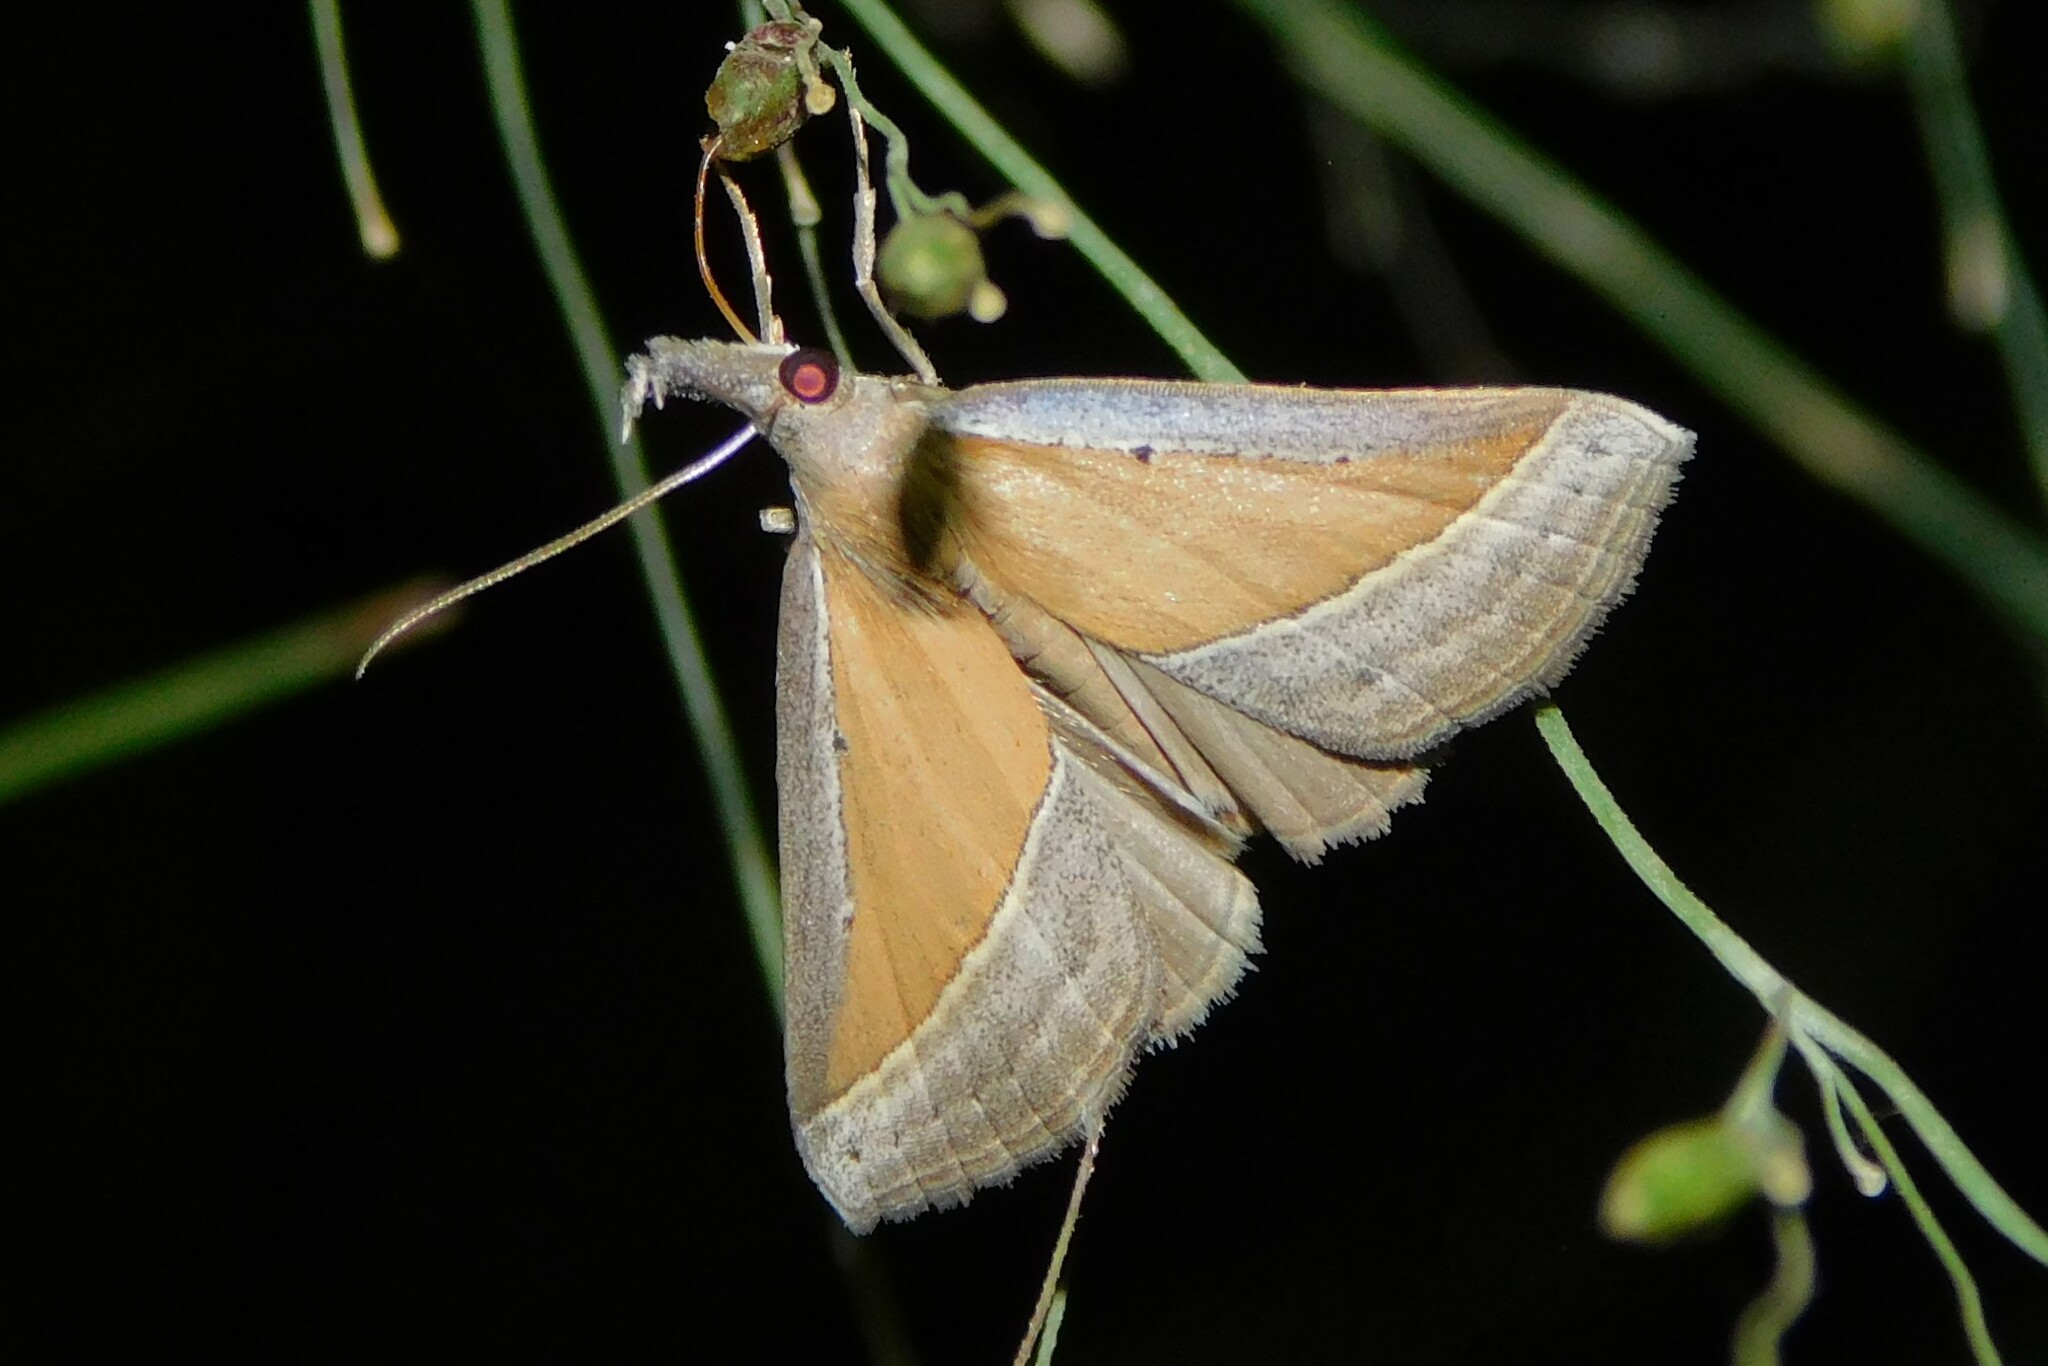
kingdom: Animalia
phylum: Arthropoda
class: Insecta
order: Lepidoptera
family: Erebidae
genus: Hypena
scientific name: Hypena conscitalis
